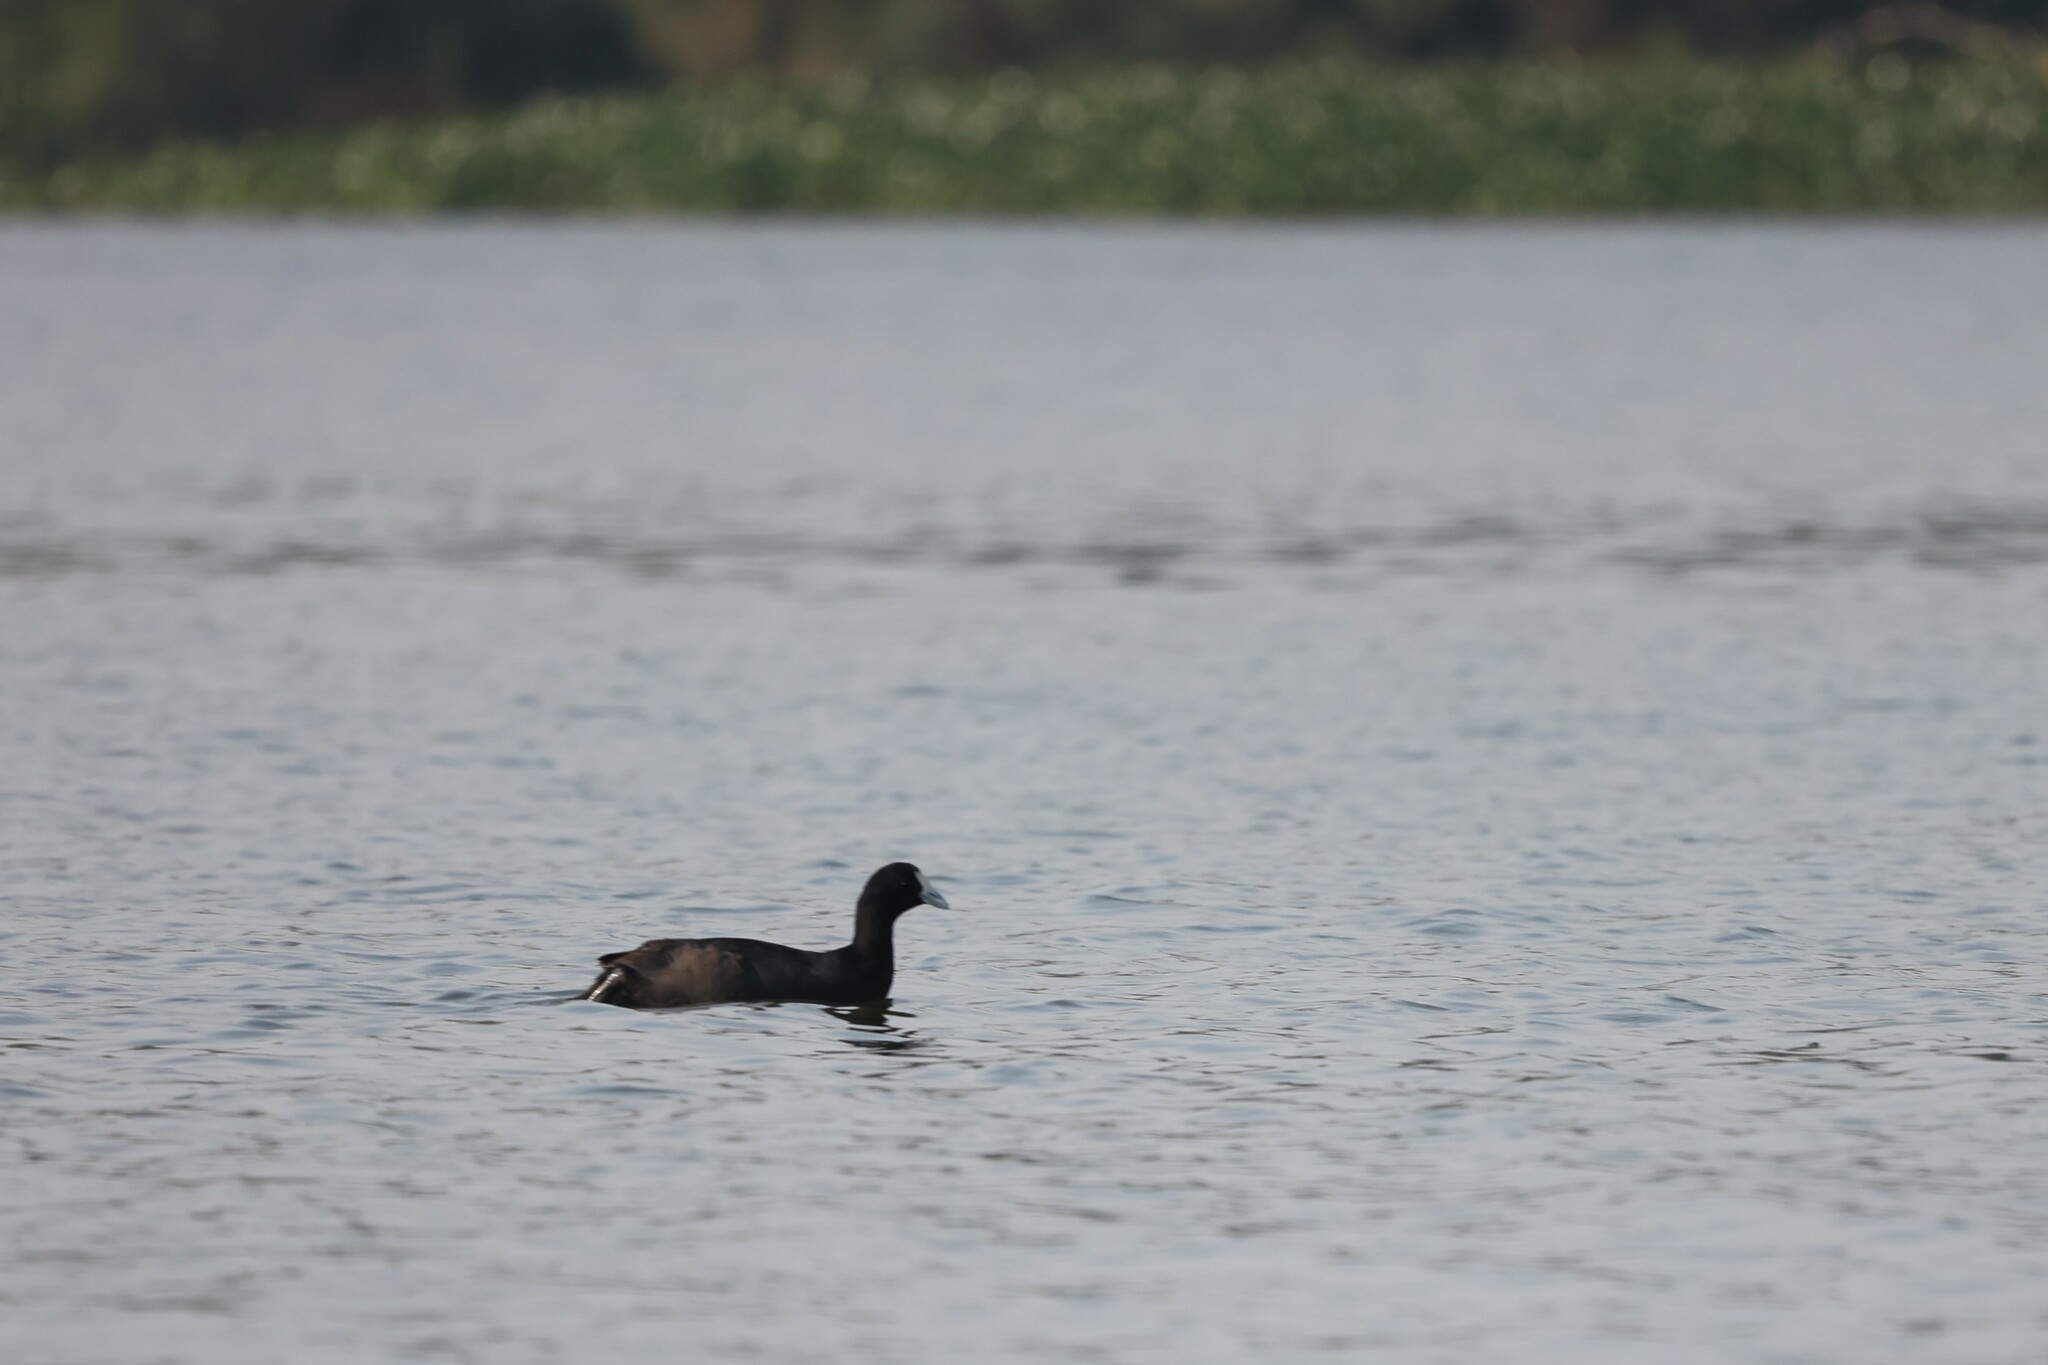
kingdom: Animalia
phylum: Chordata
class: Aves
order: Gruiformes
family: Rallidae
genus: Fulica
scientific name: Fulica cristata
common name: Red-knobbed coot
